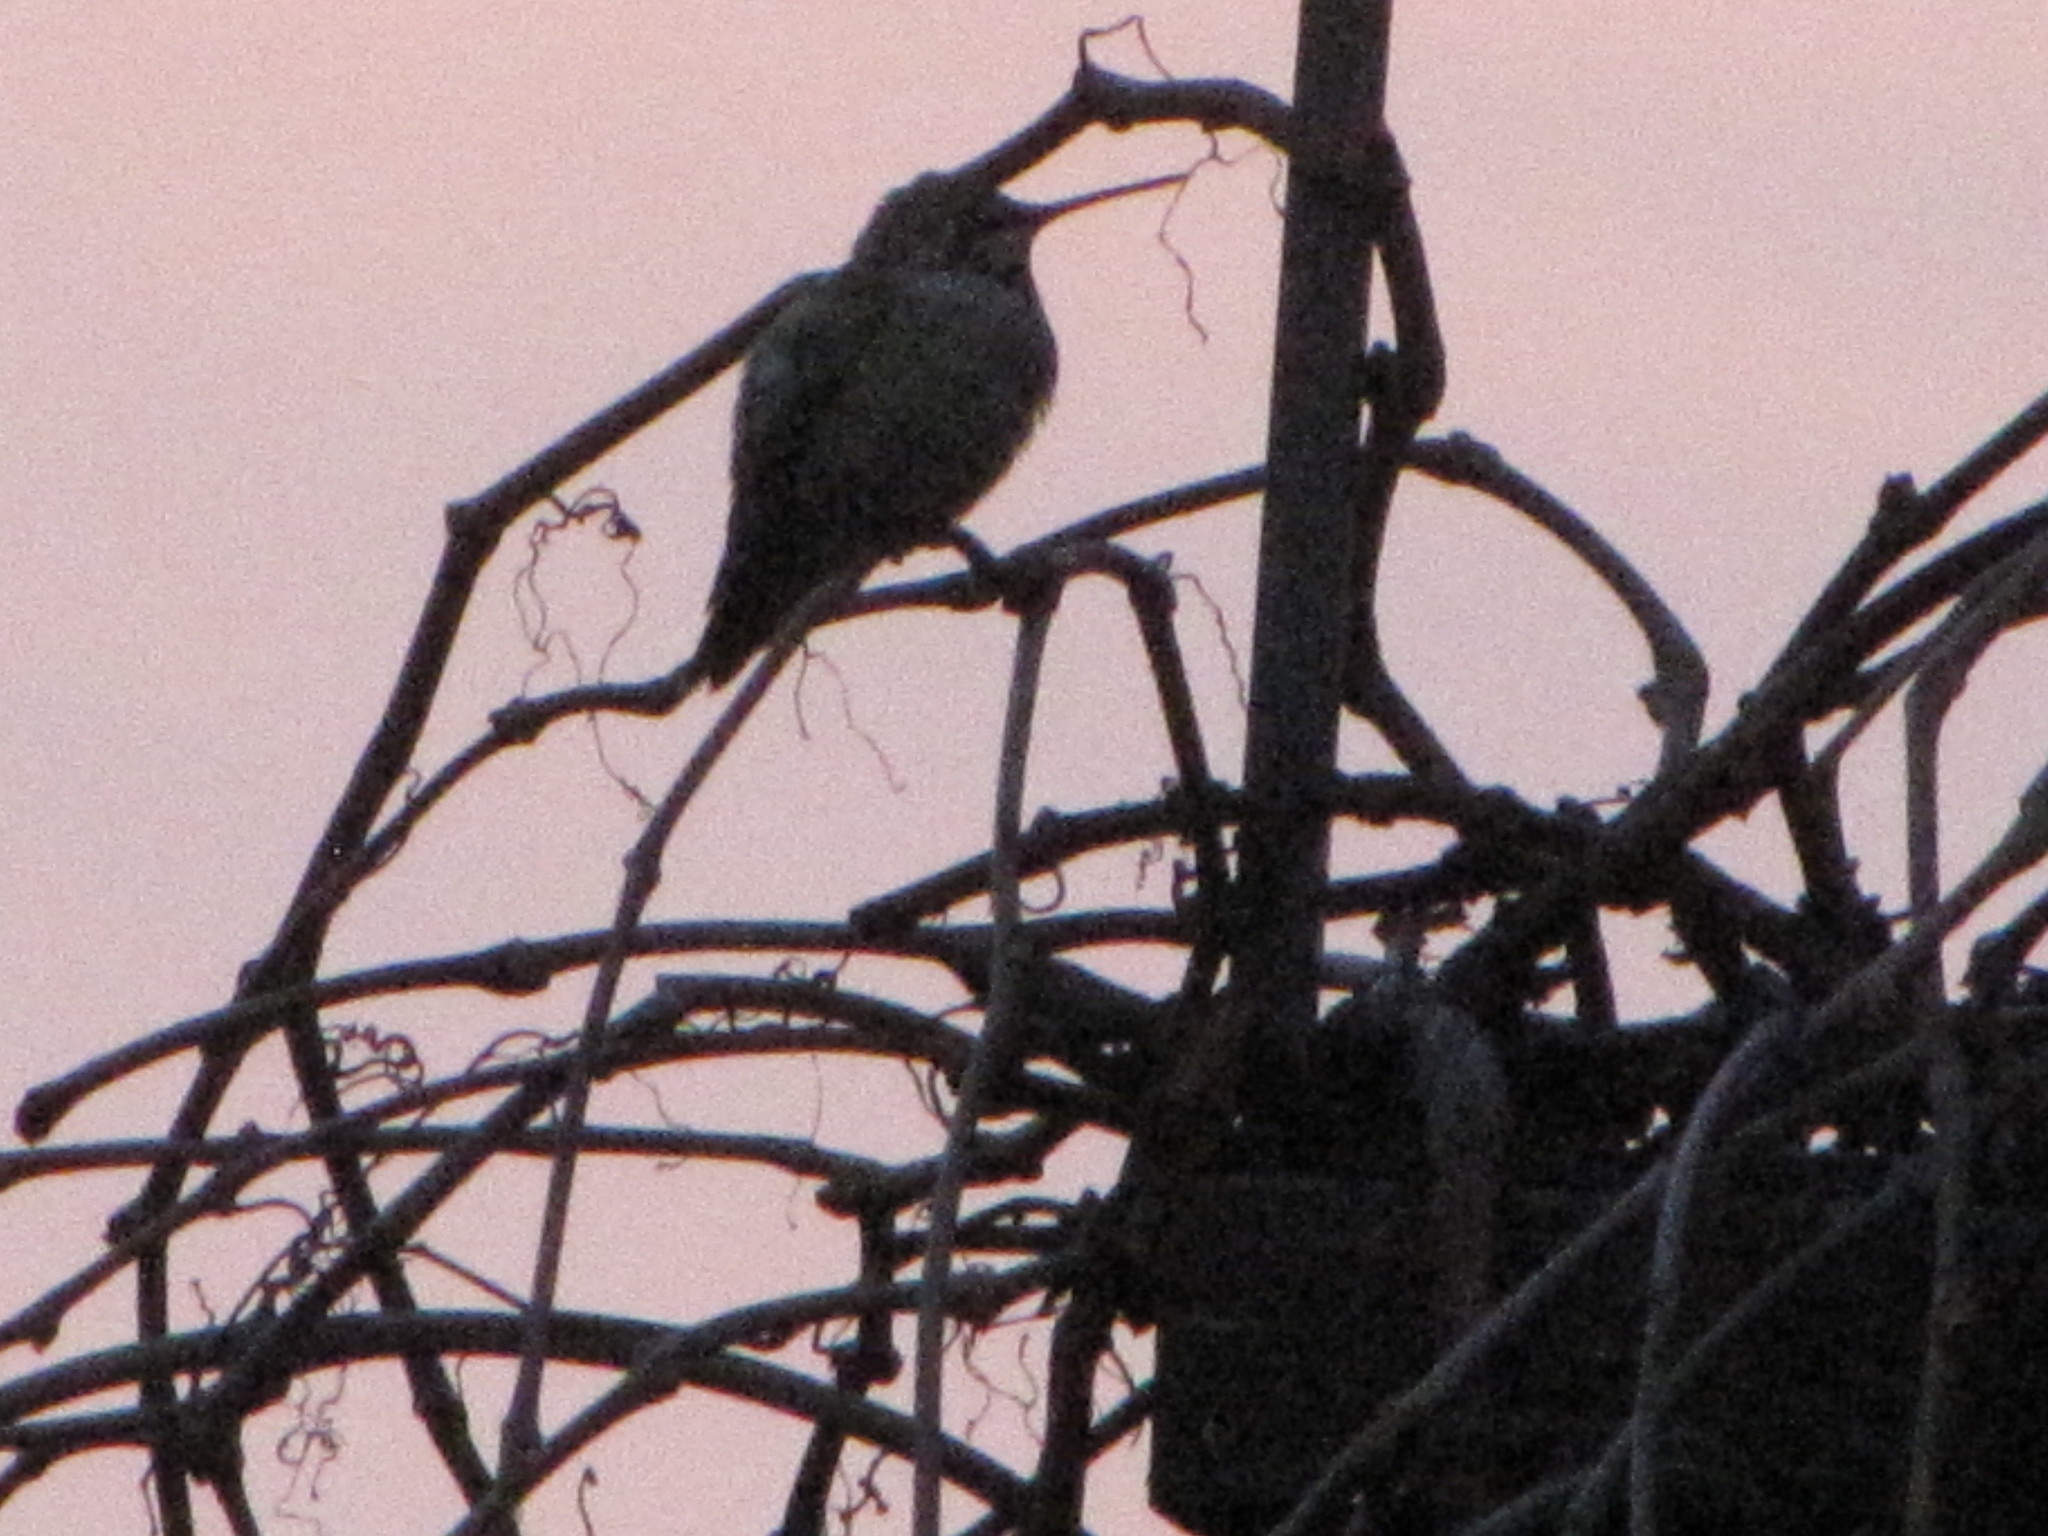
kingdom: Animalia
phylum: Chordata
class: Aves
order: Apodiformes
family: Trochilidae
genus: Calypte
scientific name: Calypte anna
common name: Anna's hummingbird
